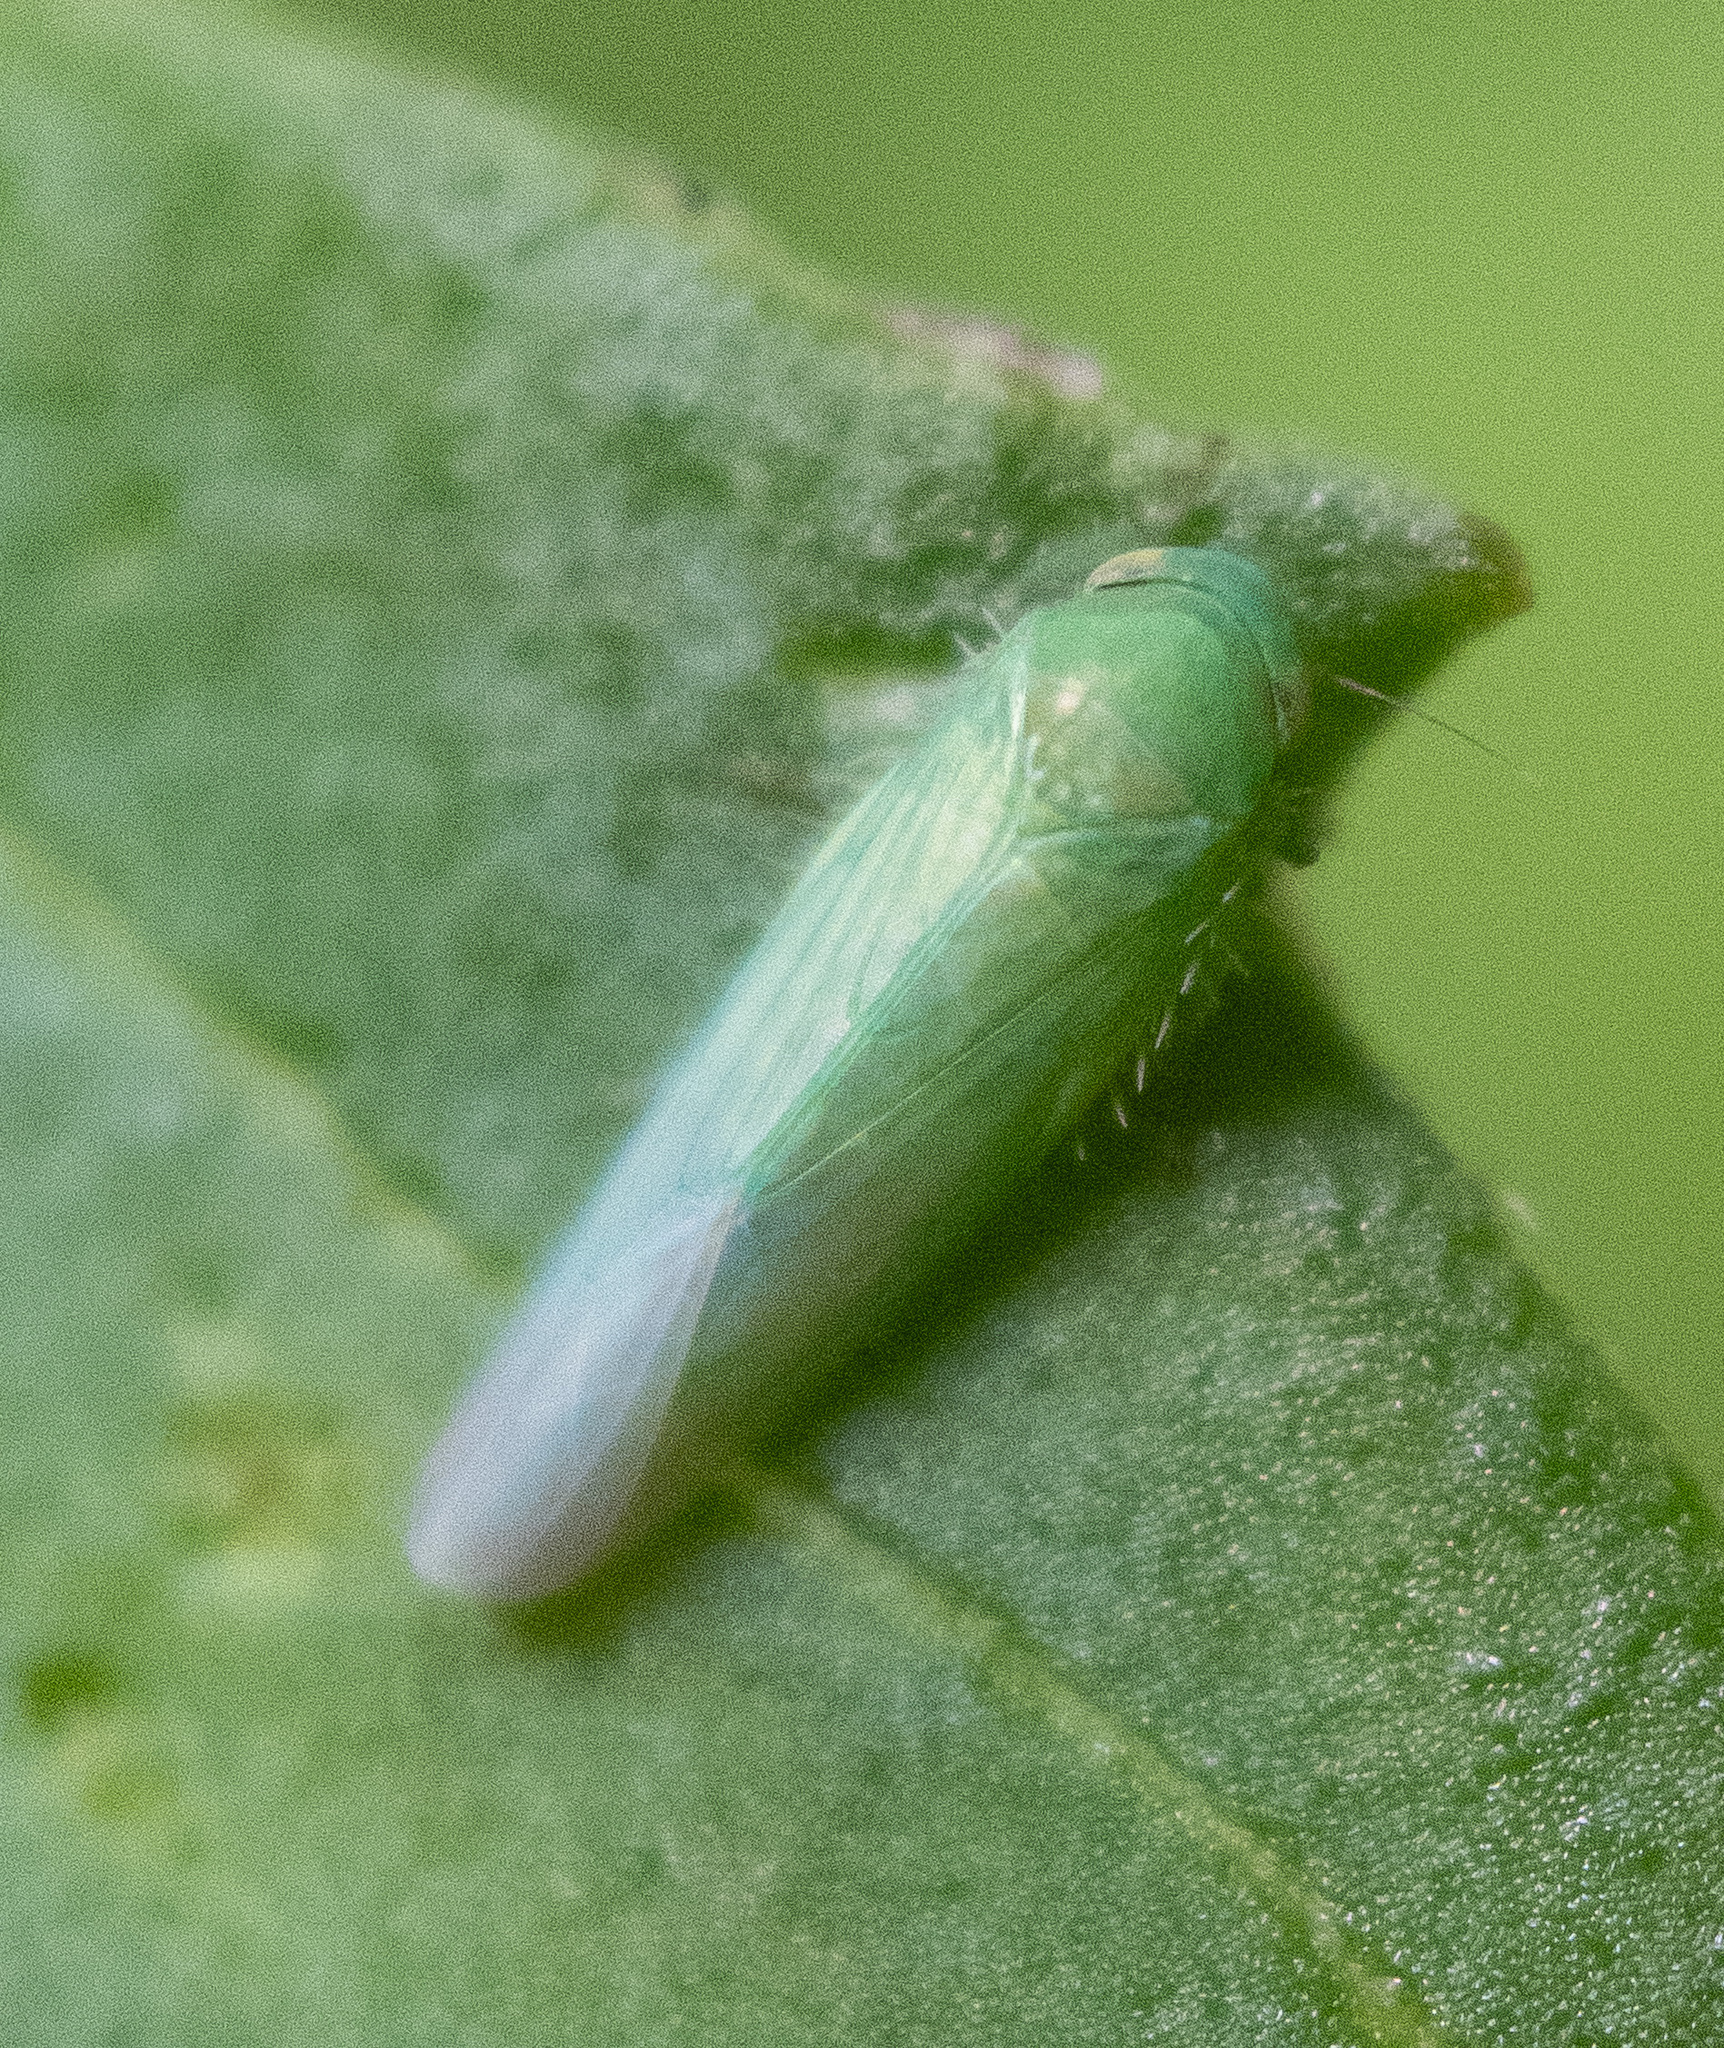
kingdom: Animalia
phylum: Arthropoda
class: Insecta
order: Hemiptera
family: Cicadellidae
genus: Balclutha
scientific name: Balclutha
